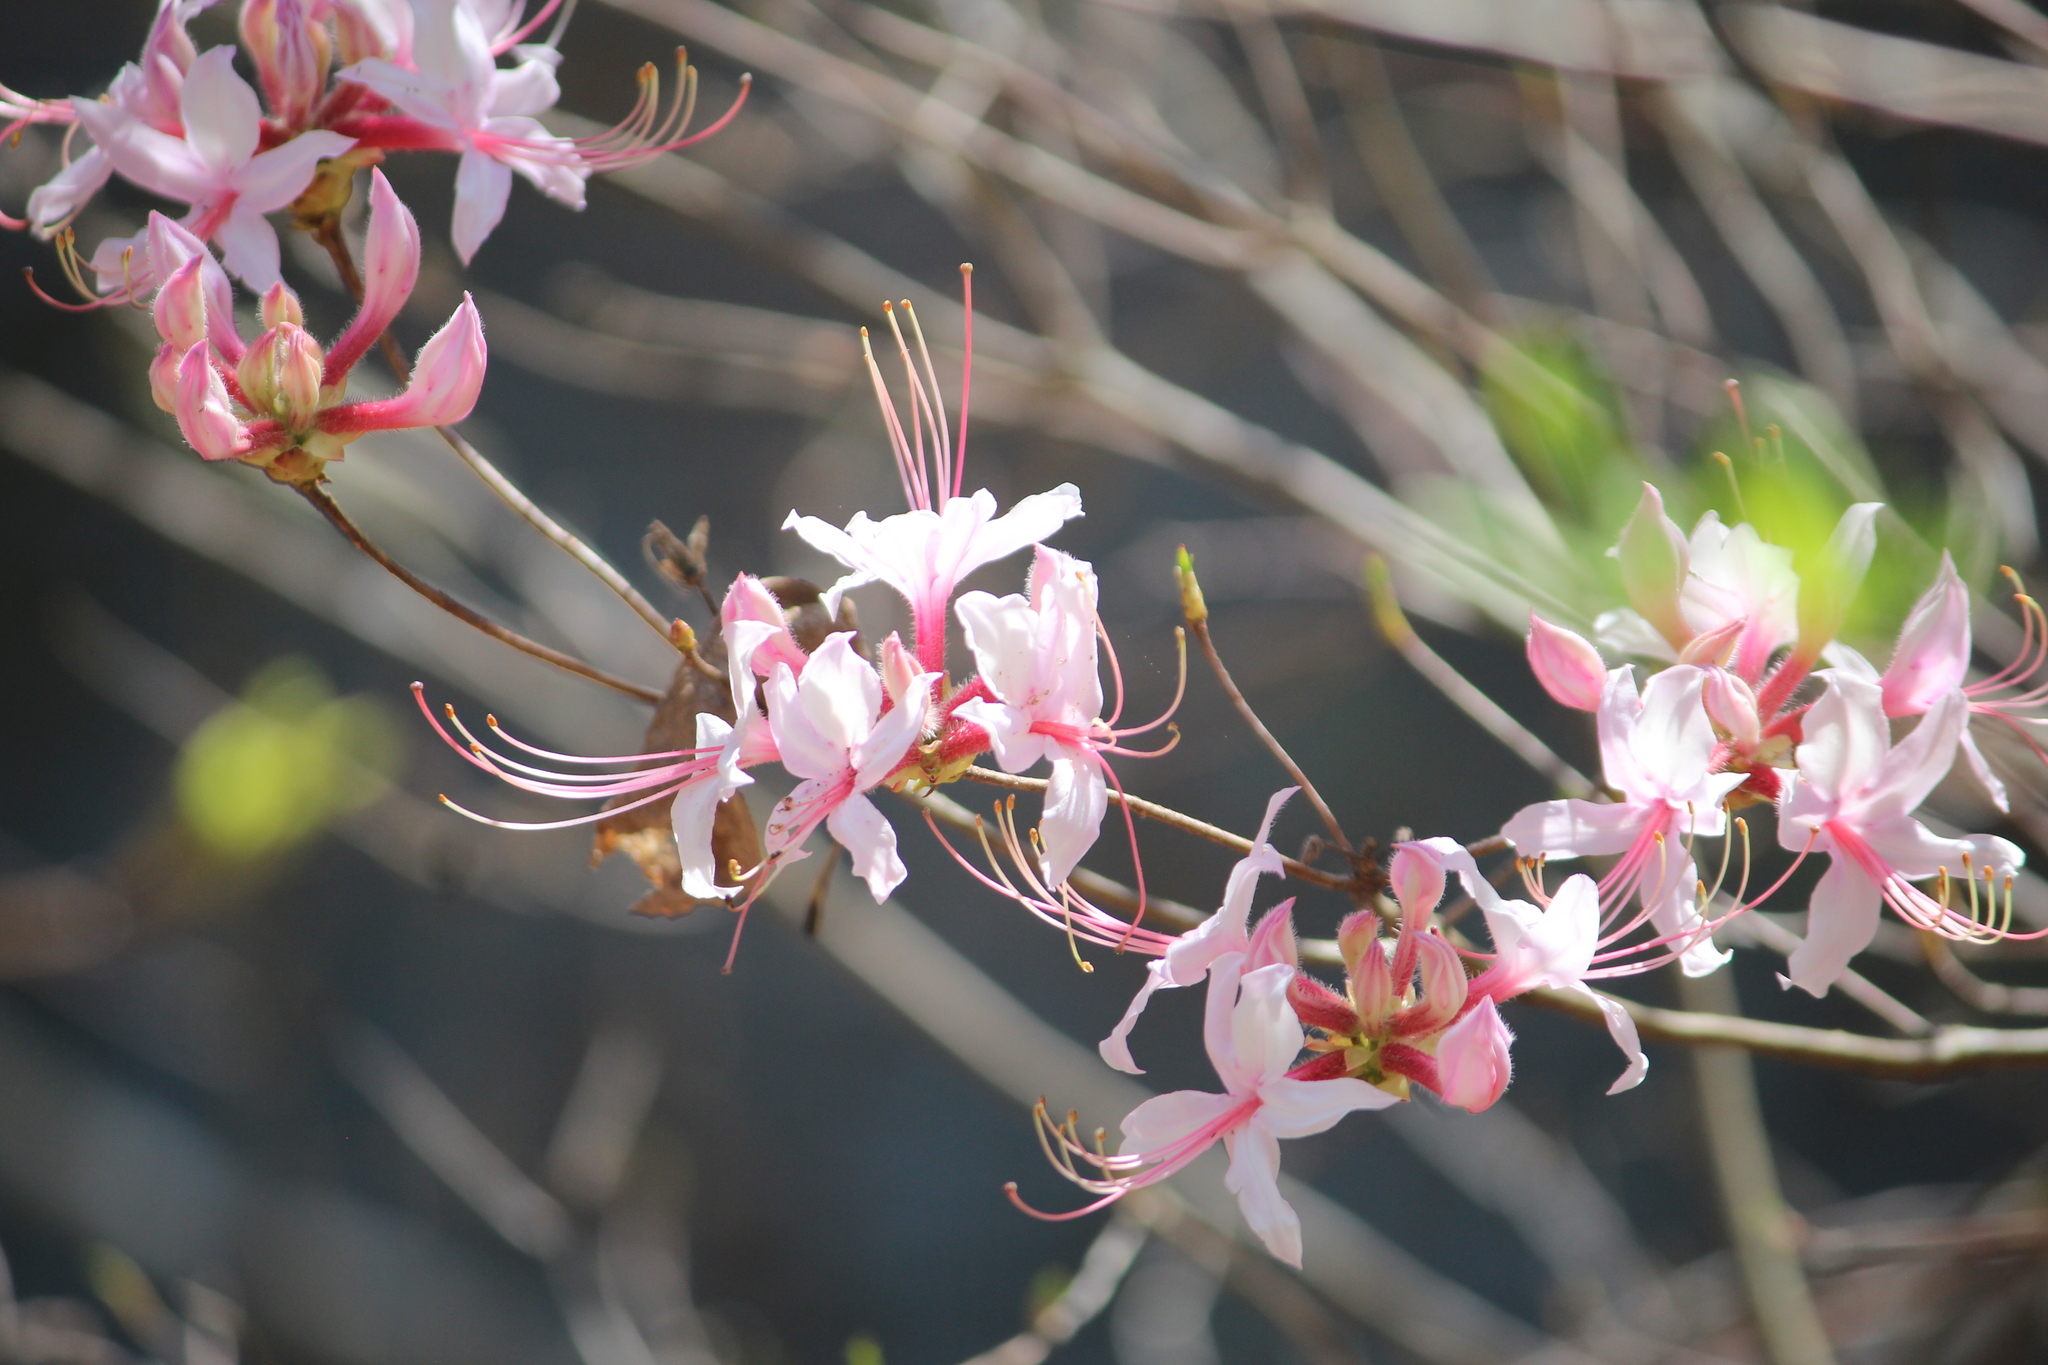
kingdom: Plantae
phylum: Tracheophyta
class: Magnoliopsida
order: Ericales
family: Ericaceae
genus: Rhododendron
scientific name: Rhododendron periclymenoides
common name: Election-pink
